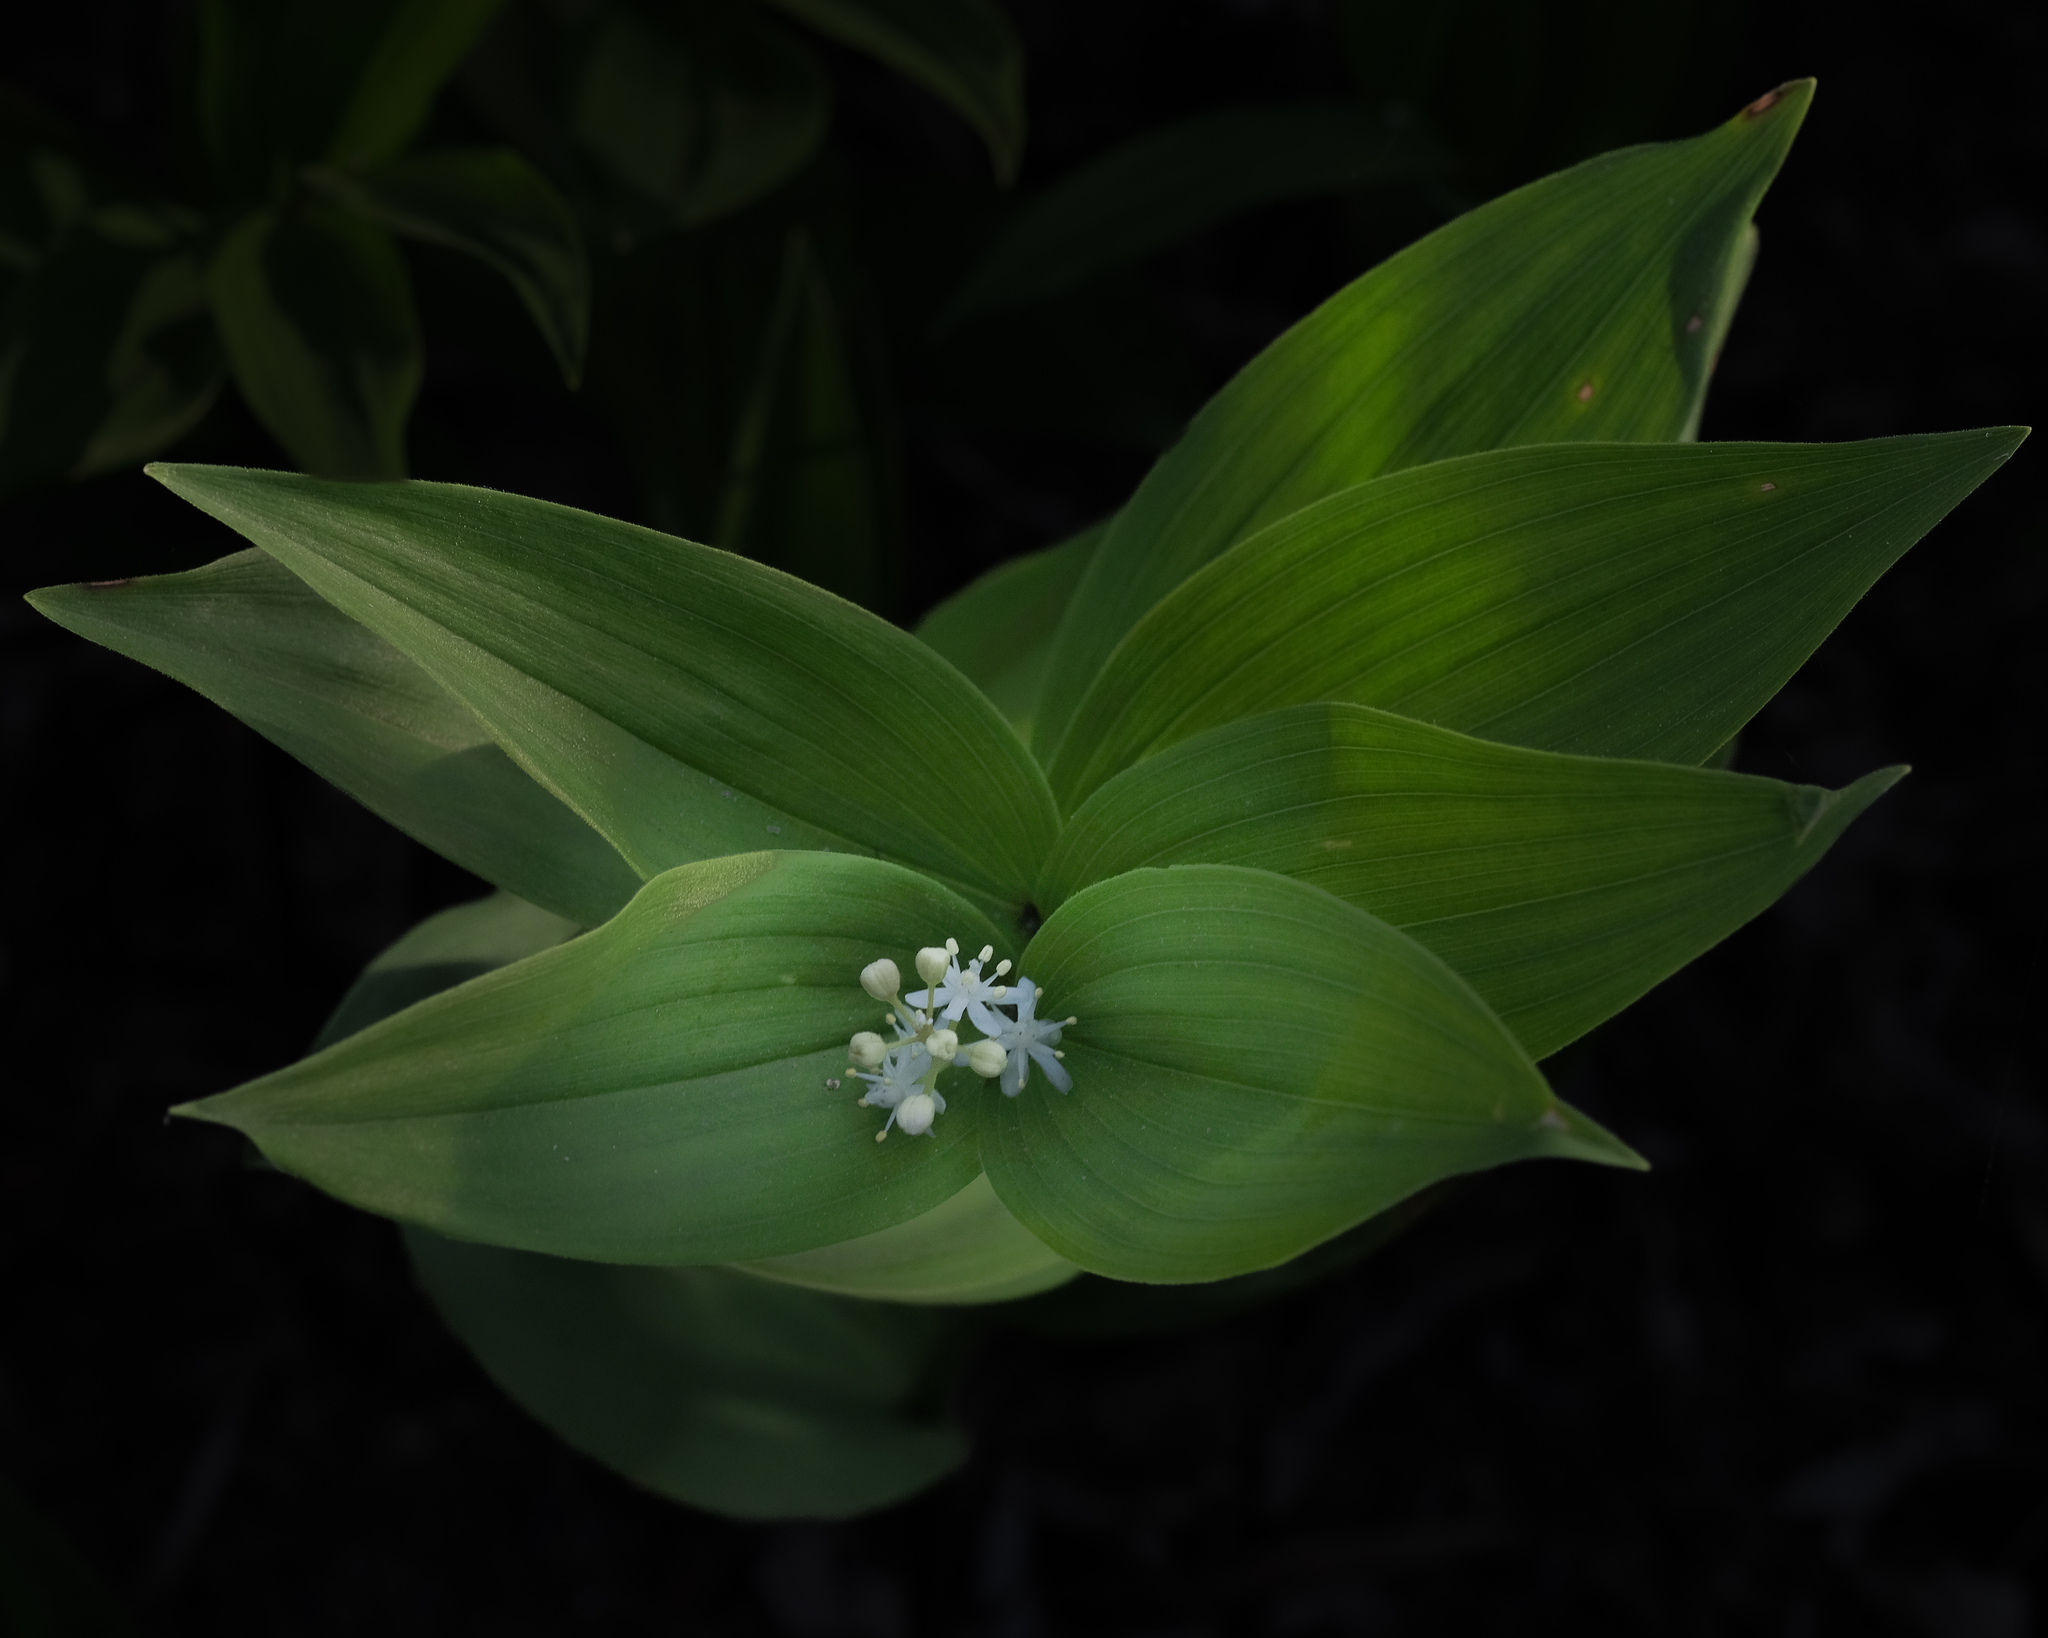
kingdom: Plantae
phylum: Tracheophyta
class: Liliopsida
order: Asparagales
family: Asparagaceae
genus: Maianthemum
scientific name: Maianthemum stellatum
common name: Little false solomon's seal
